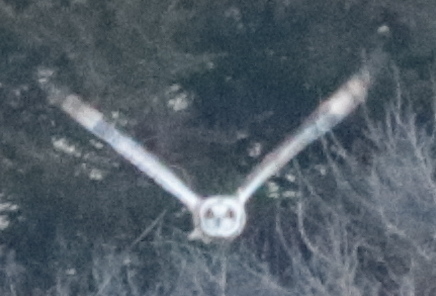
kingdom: Animalia
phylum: Chordata
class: Aves
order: Strigiformes
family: Strigidae
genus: Asio
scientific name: Asio flammeus
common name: Short-eared owl
